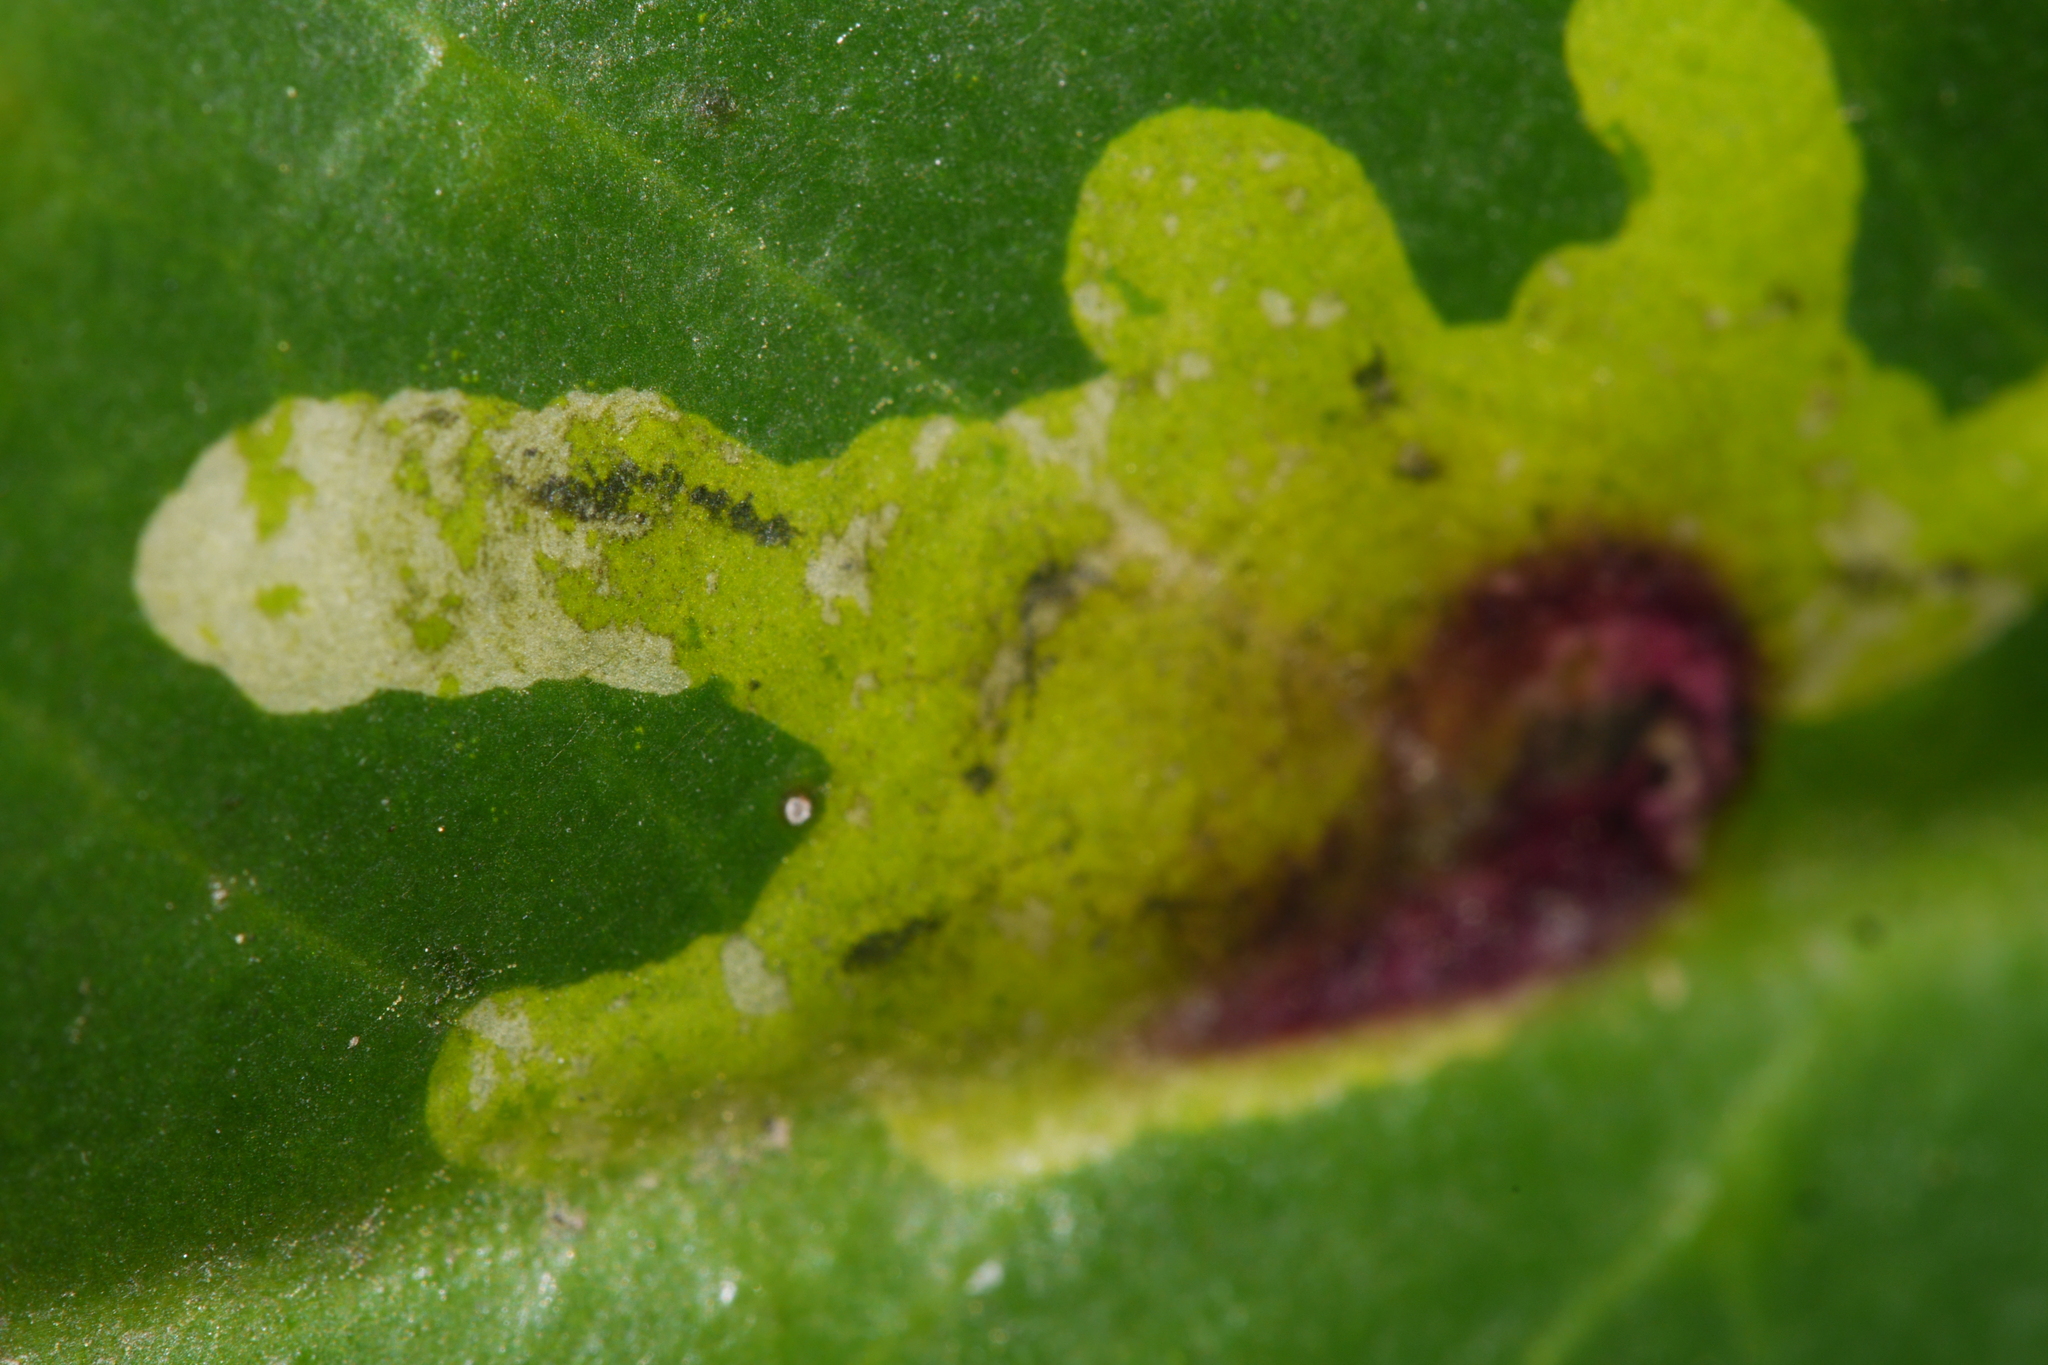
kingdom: Animalia
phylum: Arthropoda
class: Insecta
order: Diptera
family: Agromyzidae
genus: Phytomyza
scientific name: Phytomyza ilicis
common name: Holly leafminer
